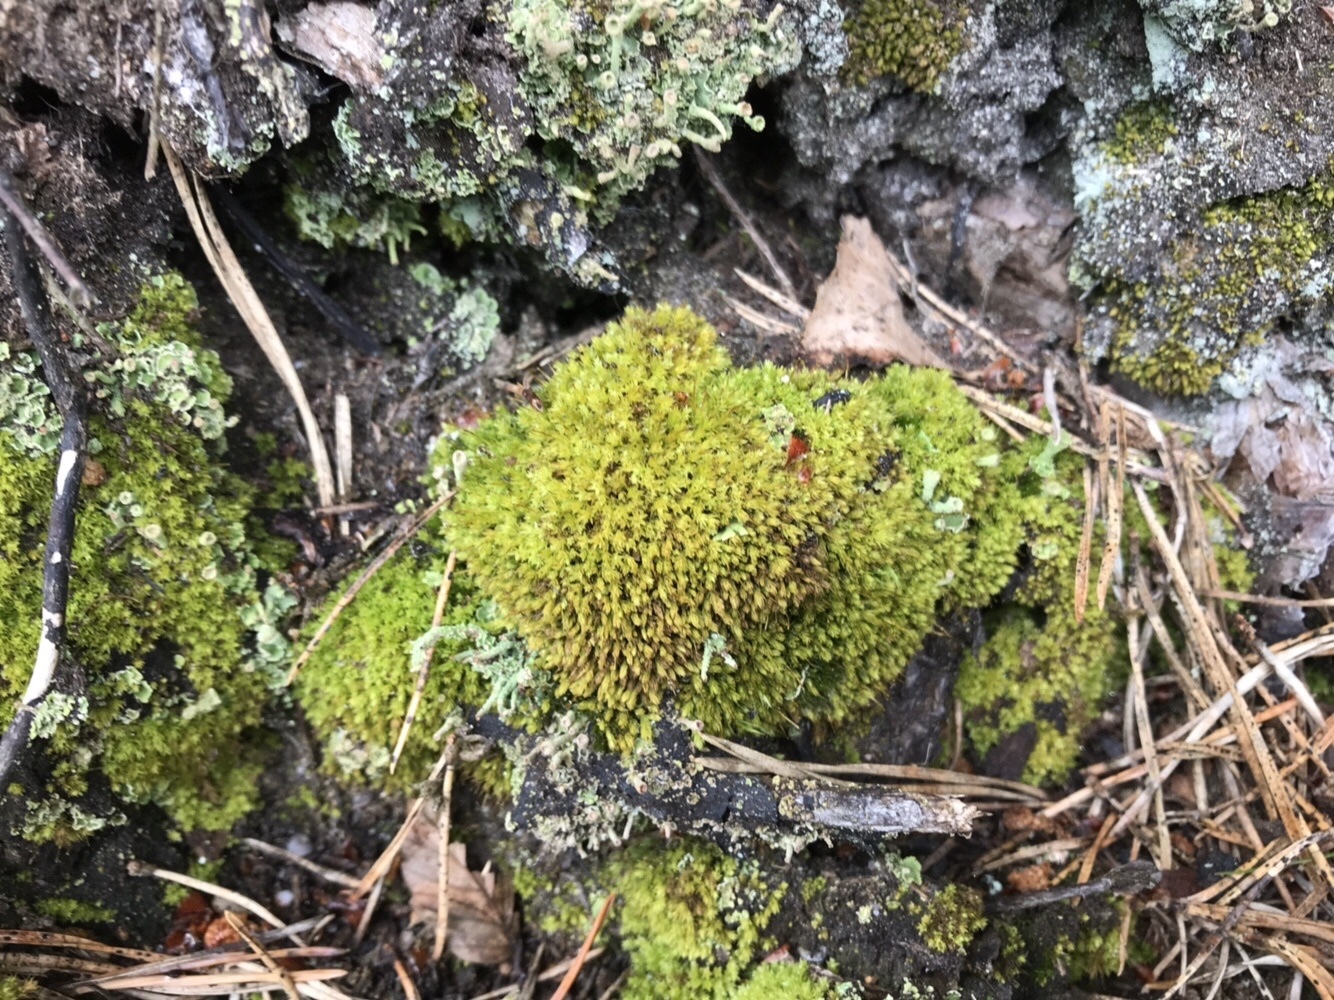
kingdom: Plantae
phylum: Bryophyta
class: Bryopsida
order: Aulacomniales
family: Aulacomniaceae
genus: Aulacomnium
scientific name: Aulacomnium androgynum
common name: Little groove moss
